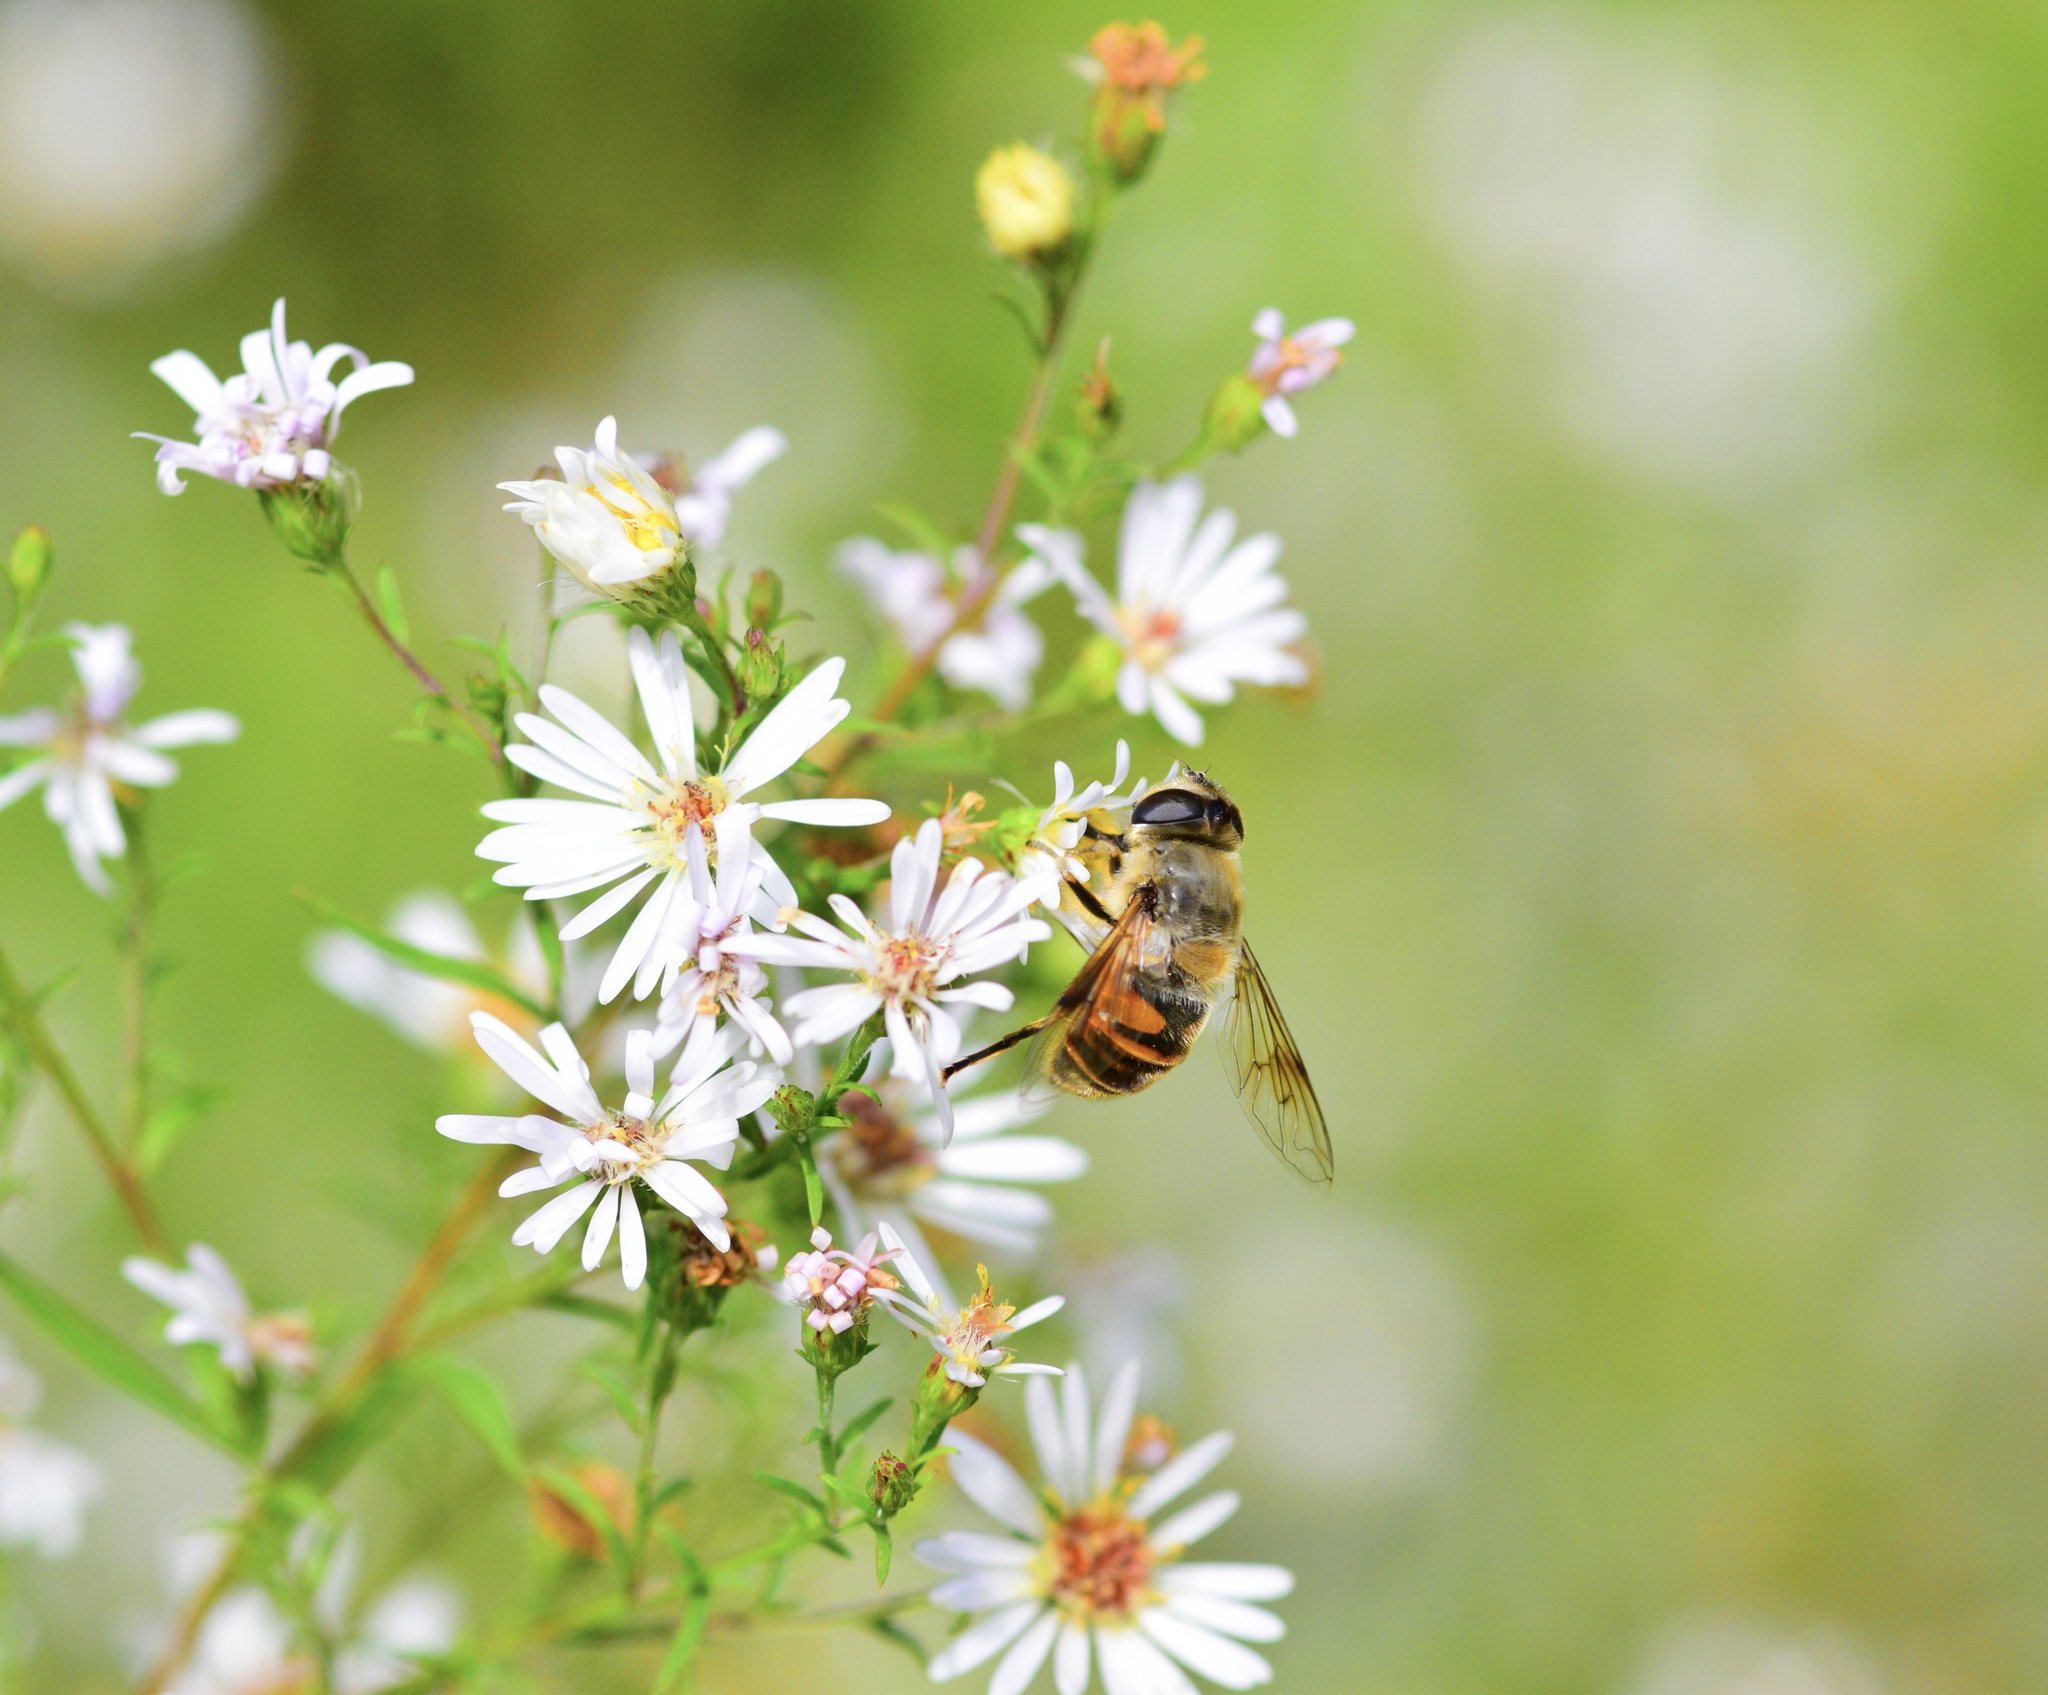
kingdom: Animalia
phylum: Arthropoda
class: Insecta
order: Diptera
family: Syrphidae
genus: Eristalis
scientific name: Eristalis tenax
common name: Drone fly
